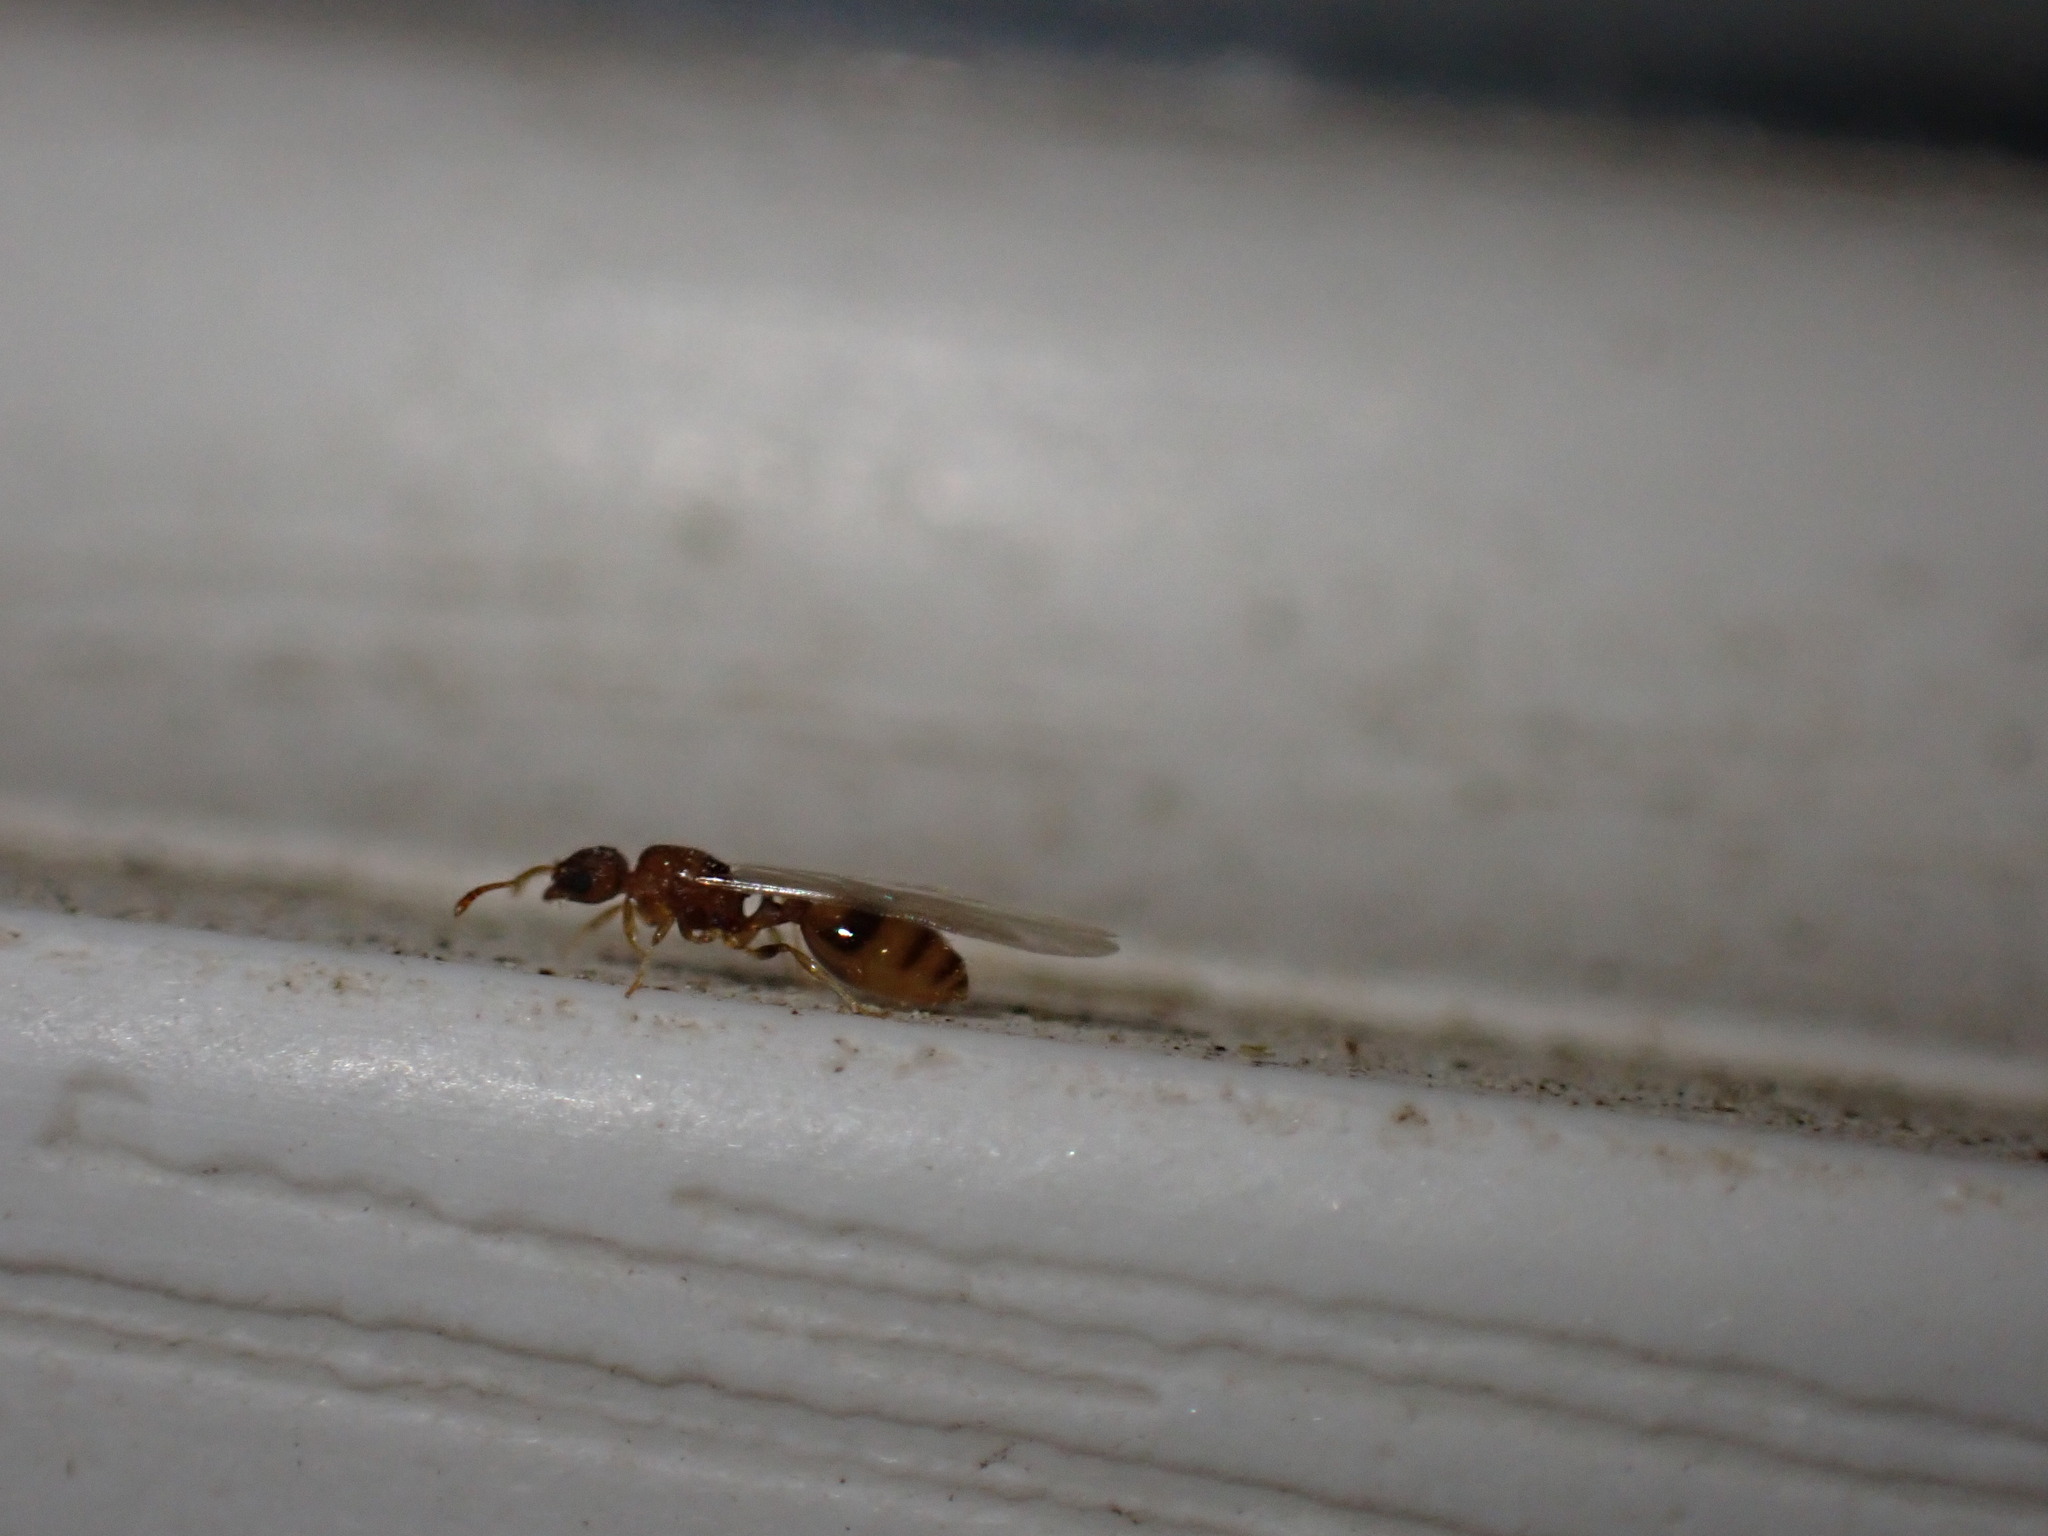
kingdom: Animalia
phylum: Arthropoda
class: Insecta
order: Hymenoptera
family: Formicidae
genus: Temnothorax
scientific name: Temnothorax
